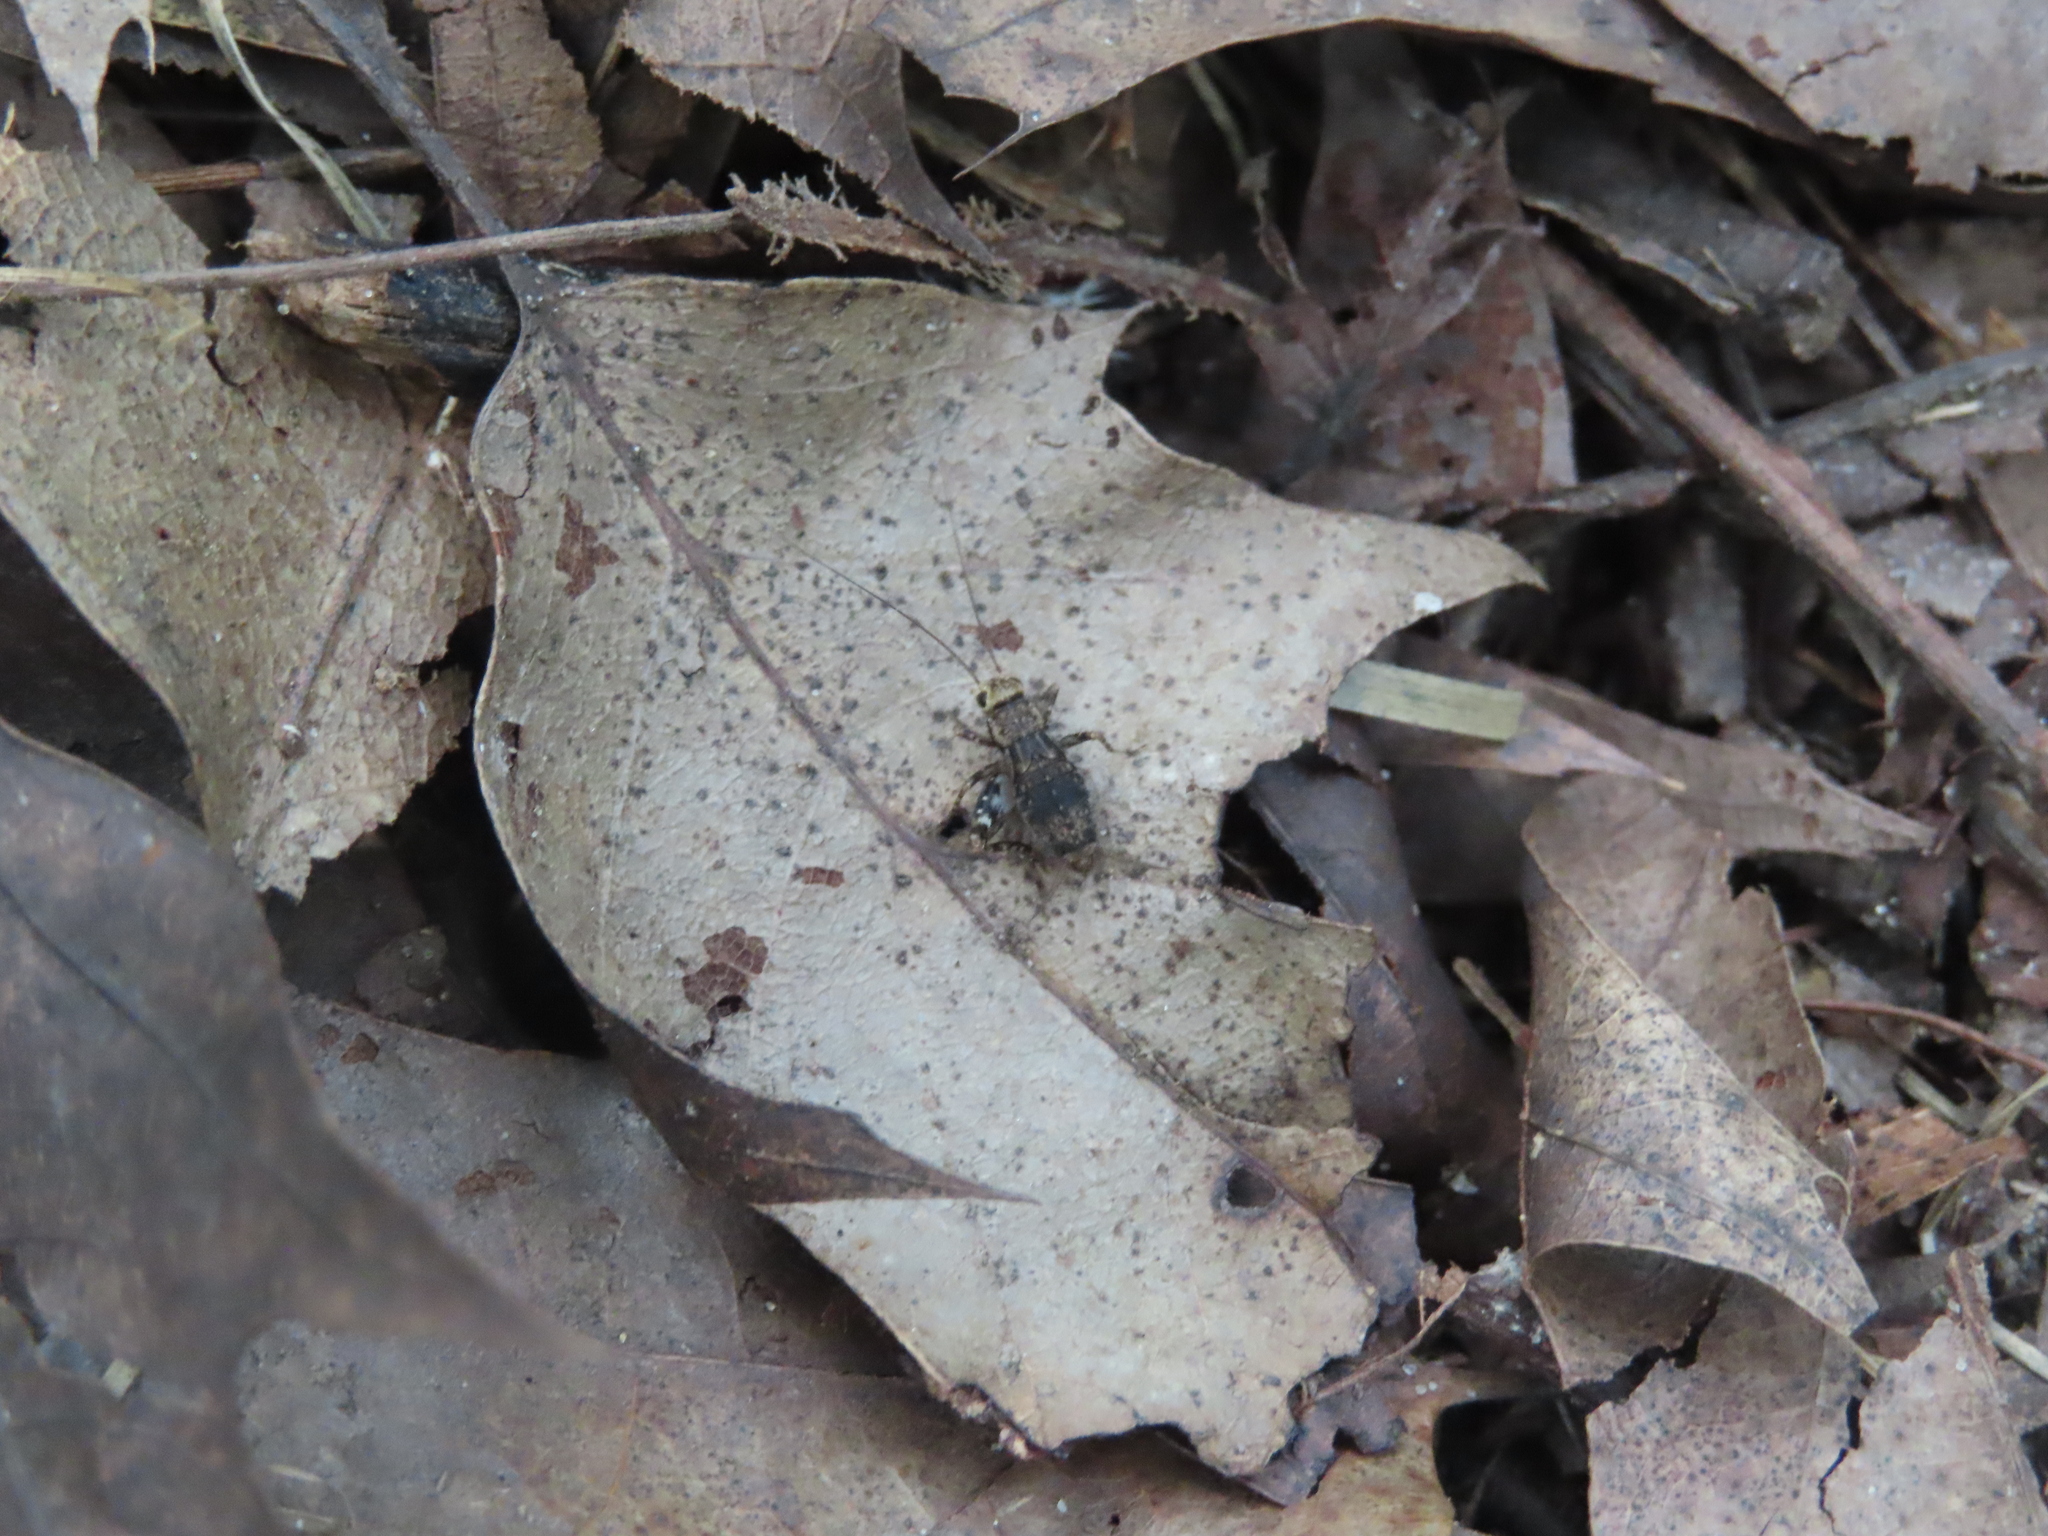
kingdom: Animalia
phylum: Arthropoda
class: Insecta
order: Orthoptera
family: Trigonidiidae
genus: Allonemobius
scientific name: Allonemobius maculatus
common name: Larger spotted ground cricket
